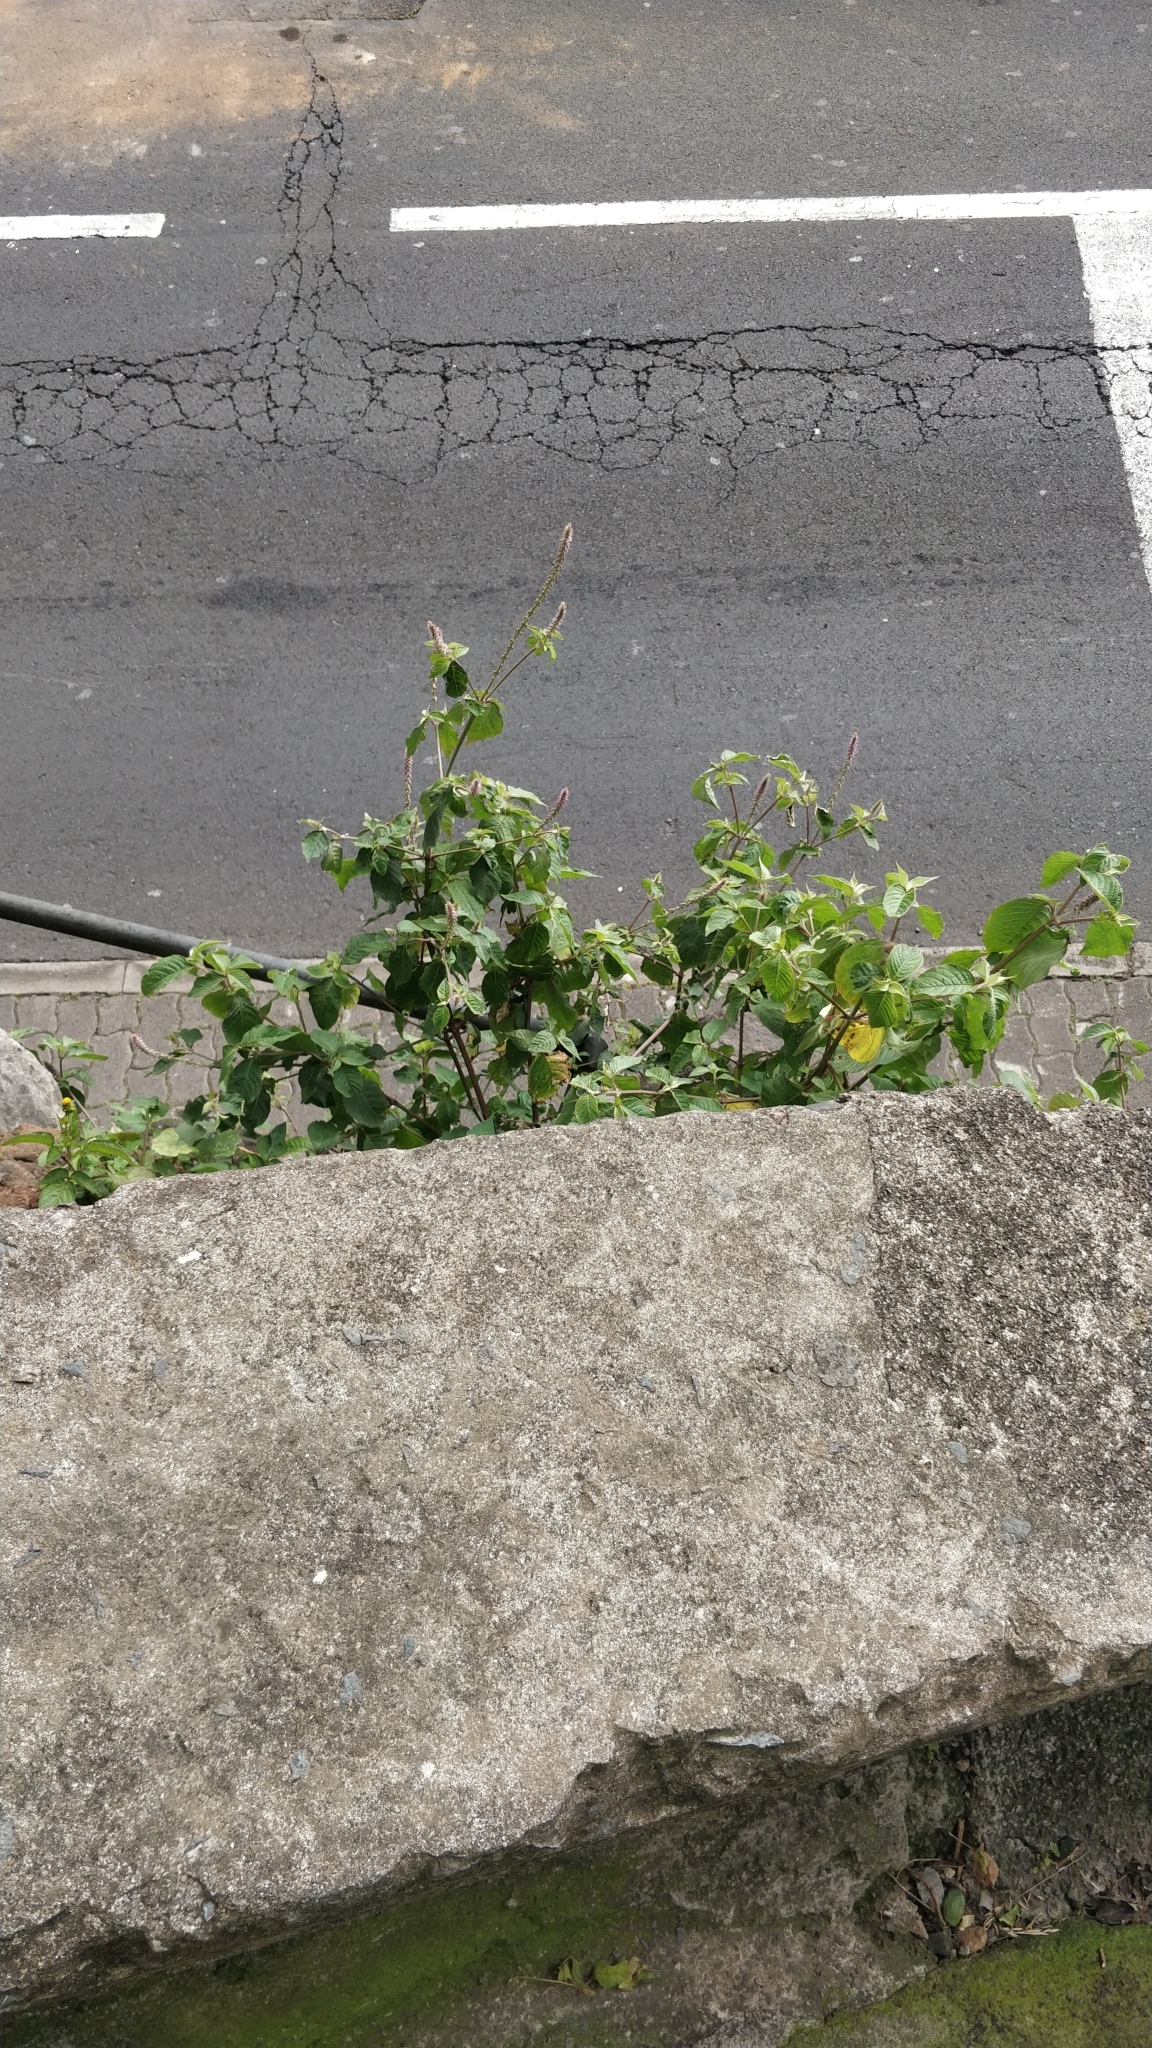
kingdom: Plantae
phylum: Tracheophyta
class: Magnoliopsida
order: Caryophyllales
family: Amaranthaceae
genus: Achyranthes
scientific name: Achyranthes aspera
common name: Devil's horsewhip
